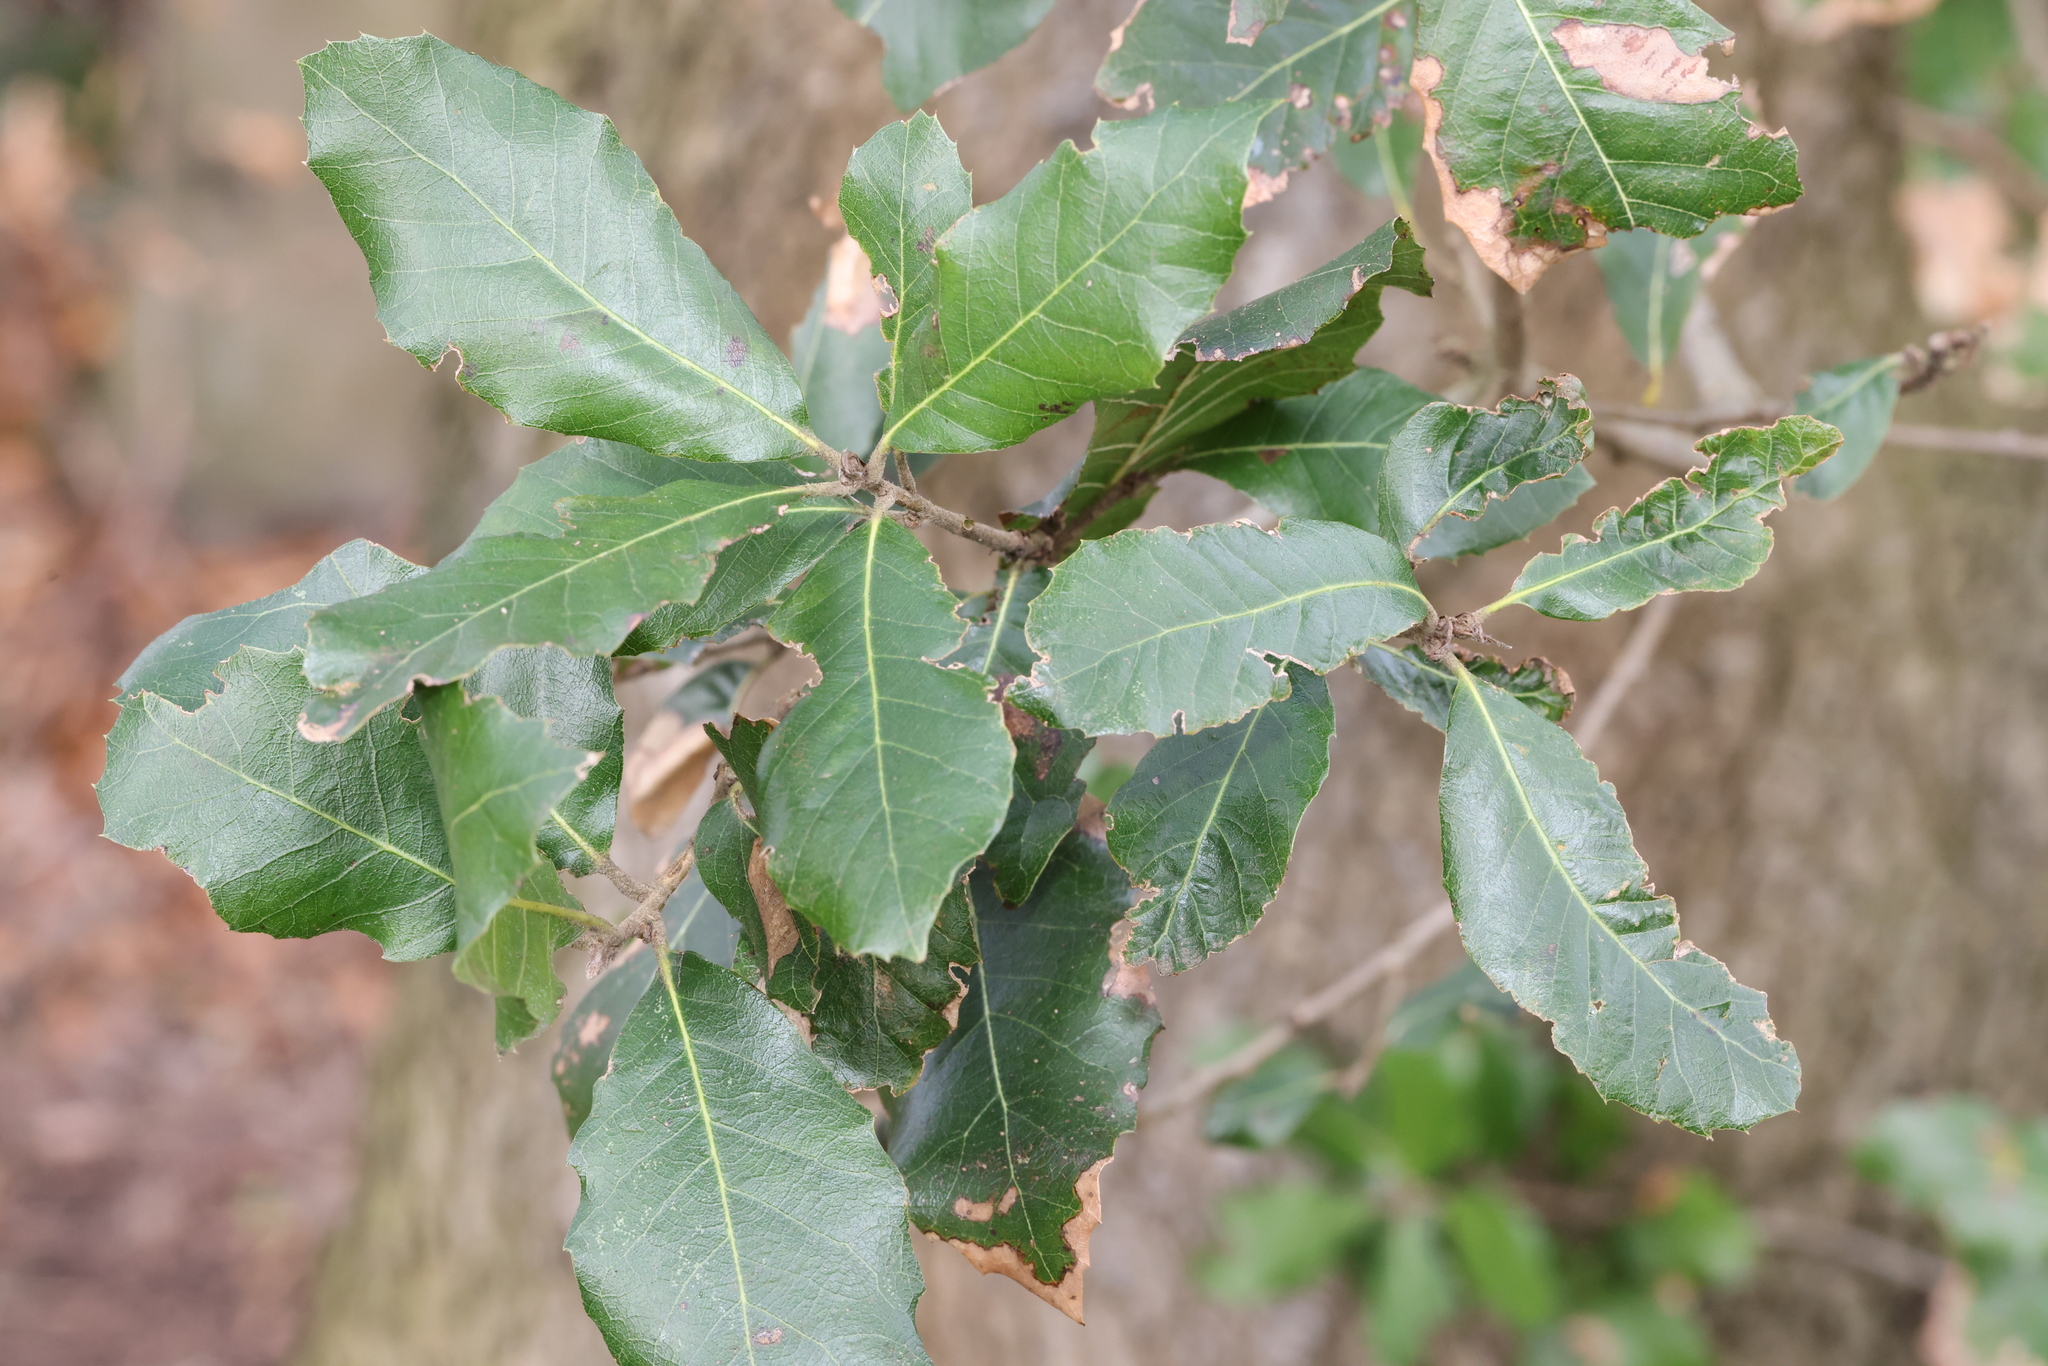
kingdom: Plantae
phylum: Tracheophyta
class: Magnoliopsida
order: Fagales
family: Fagaceae
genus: Quercus
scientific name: Quercus ilex
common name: Evergreen oak
